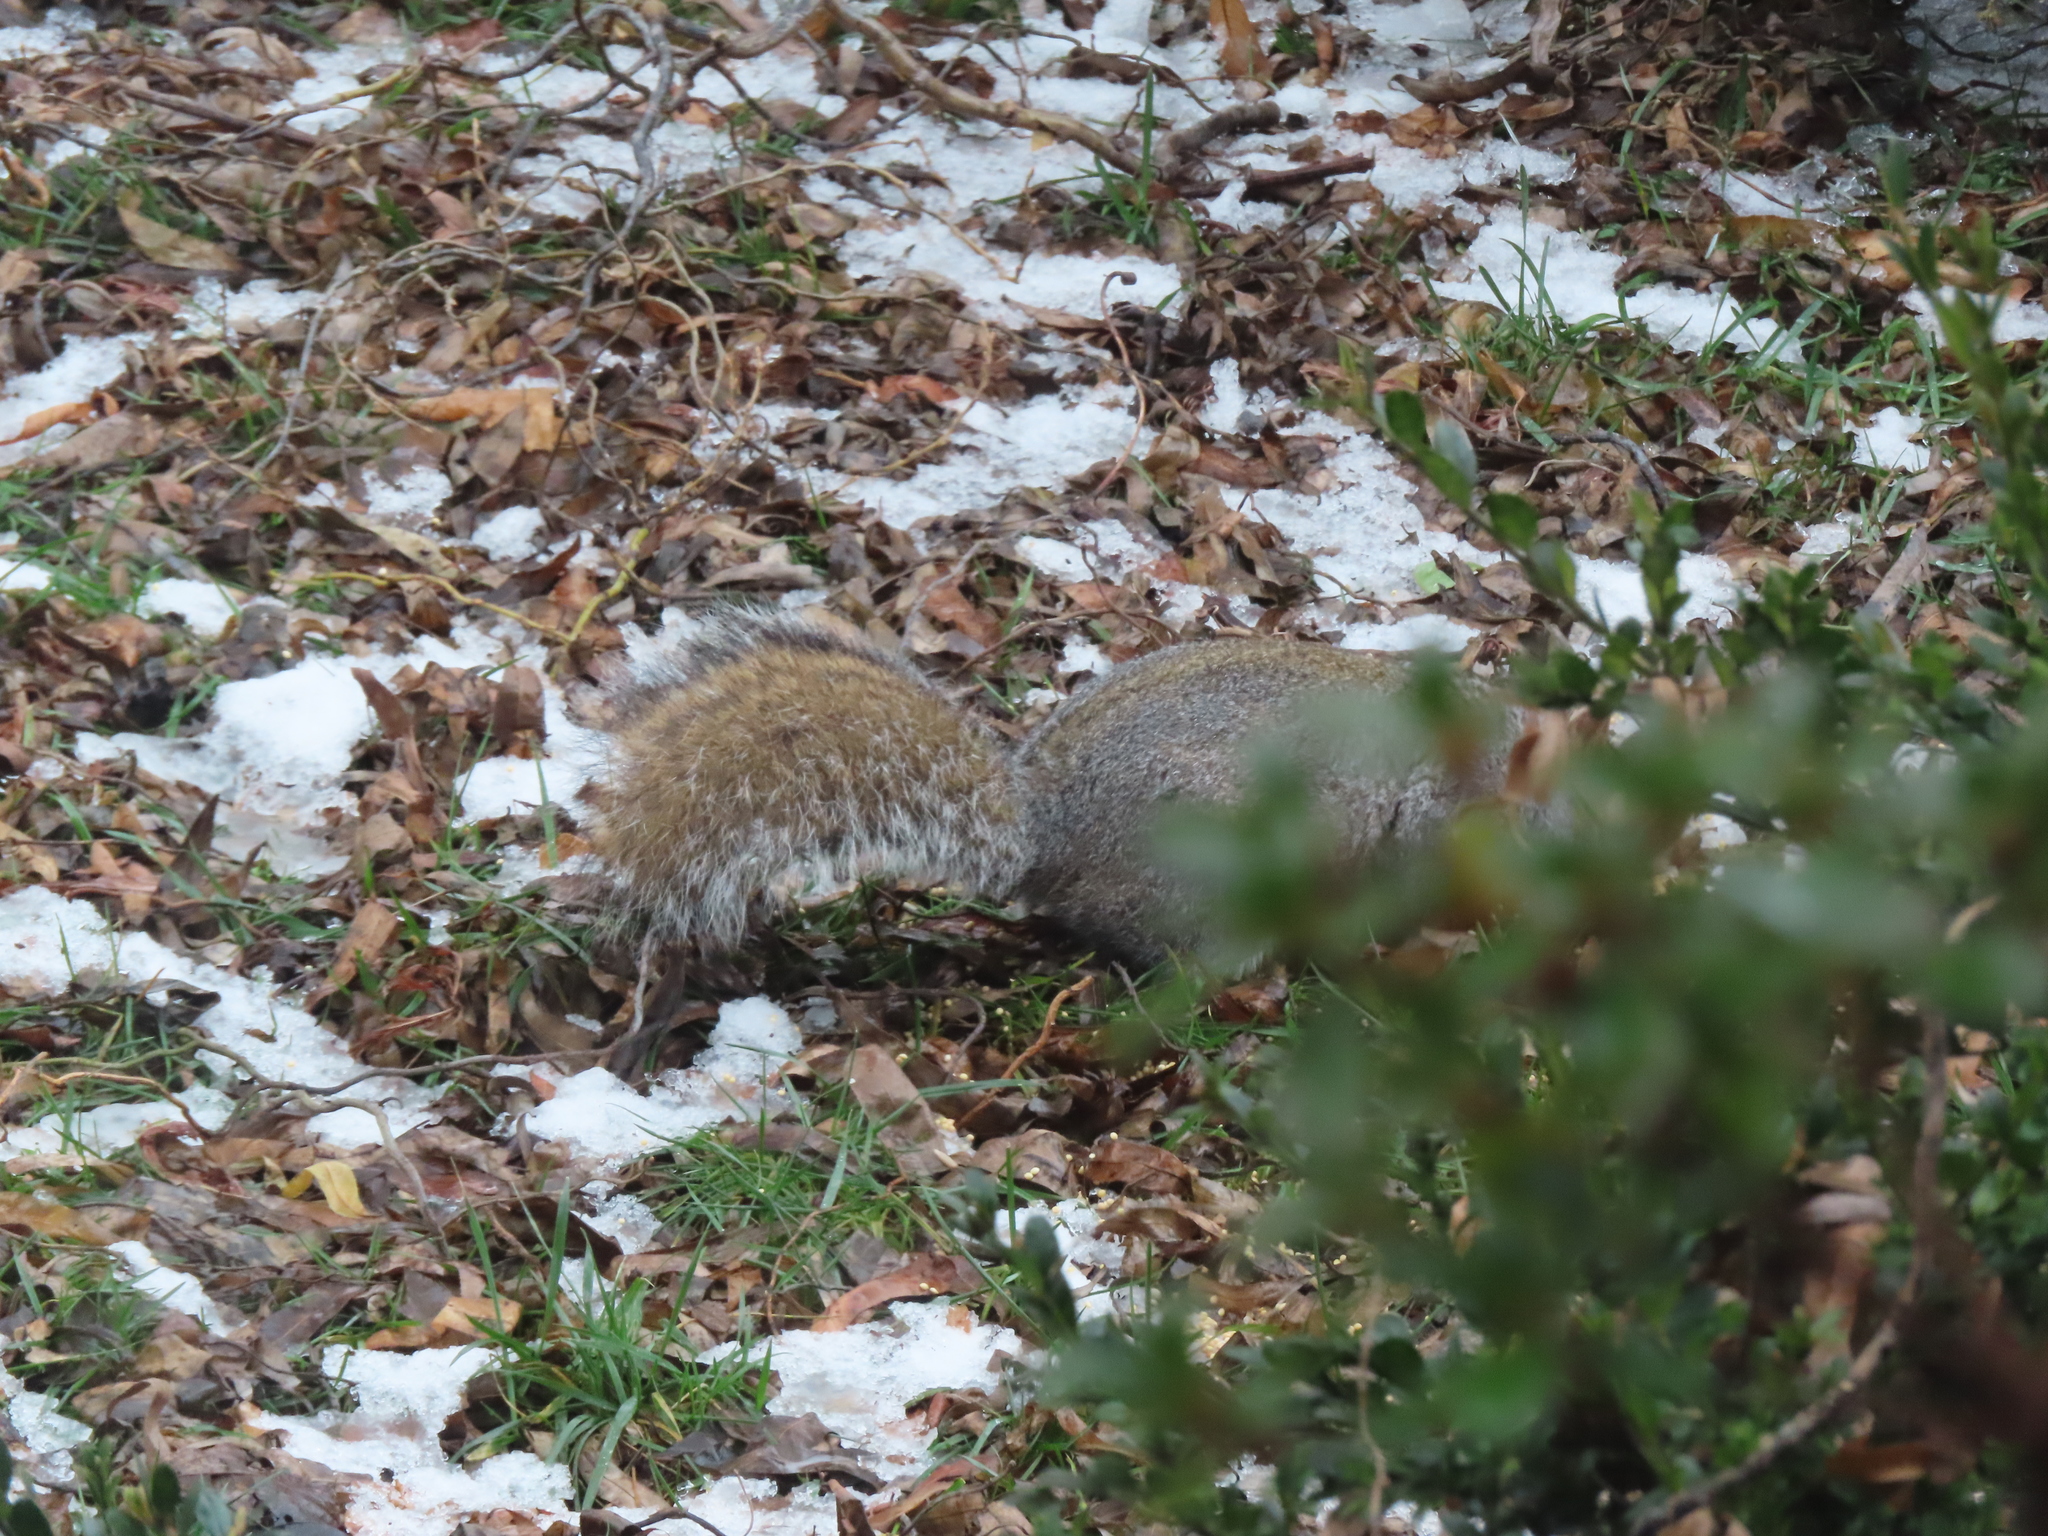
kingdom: Animalia
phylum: Chordata
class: Mammalia
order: Rodentia
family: Sciuridae
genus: Sciurus
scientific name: Sciurus carolinensis
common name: Eastern gray squirrel
